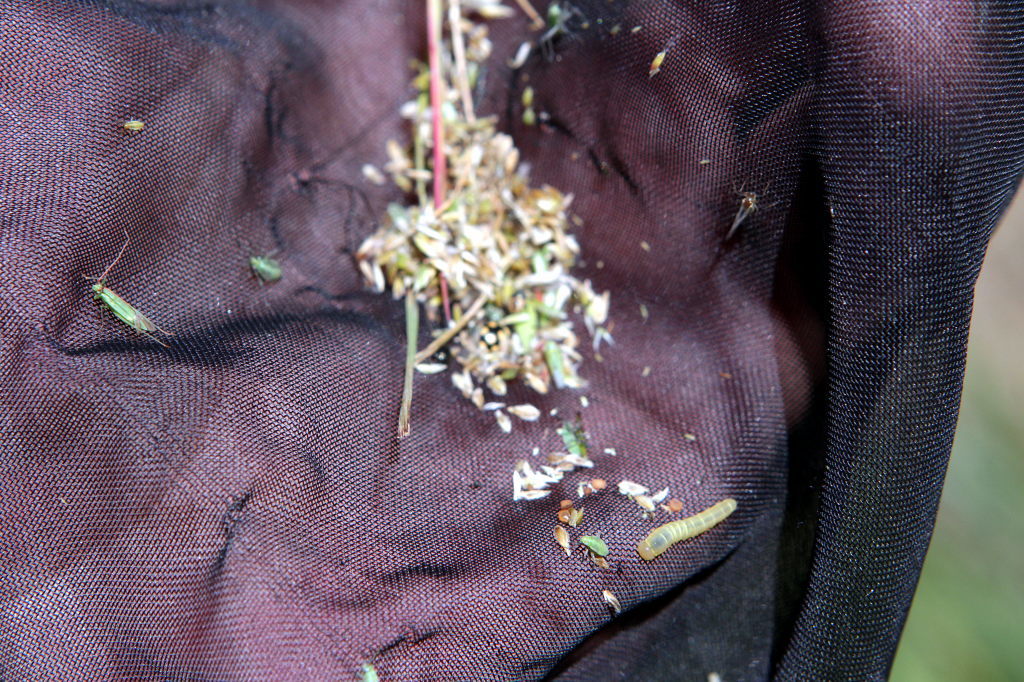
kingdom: Animalia
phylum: Arthropoda
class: Insecta
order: Coleoptera
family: Coccinellidae
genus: Coccinula
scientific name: Coccinula quatuordecimpustulata
